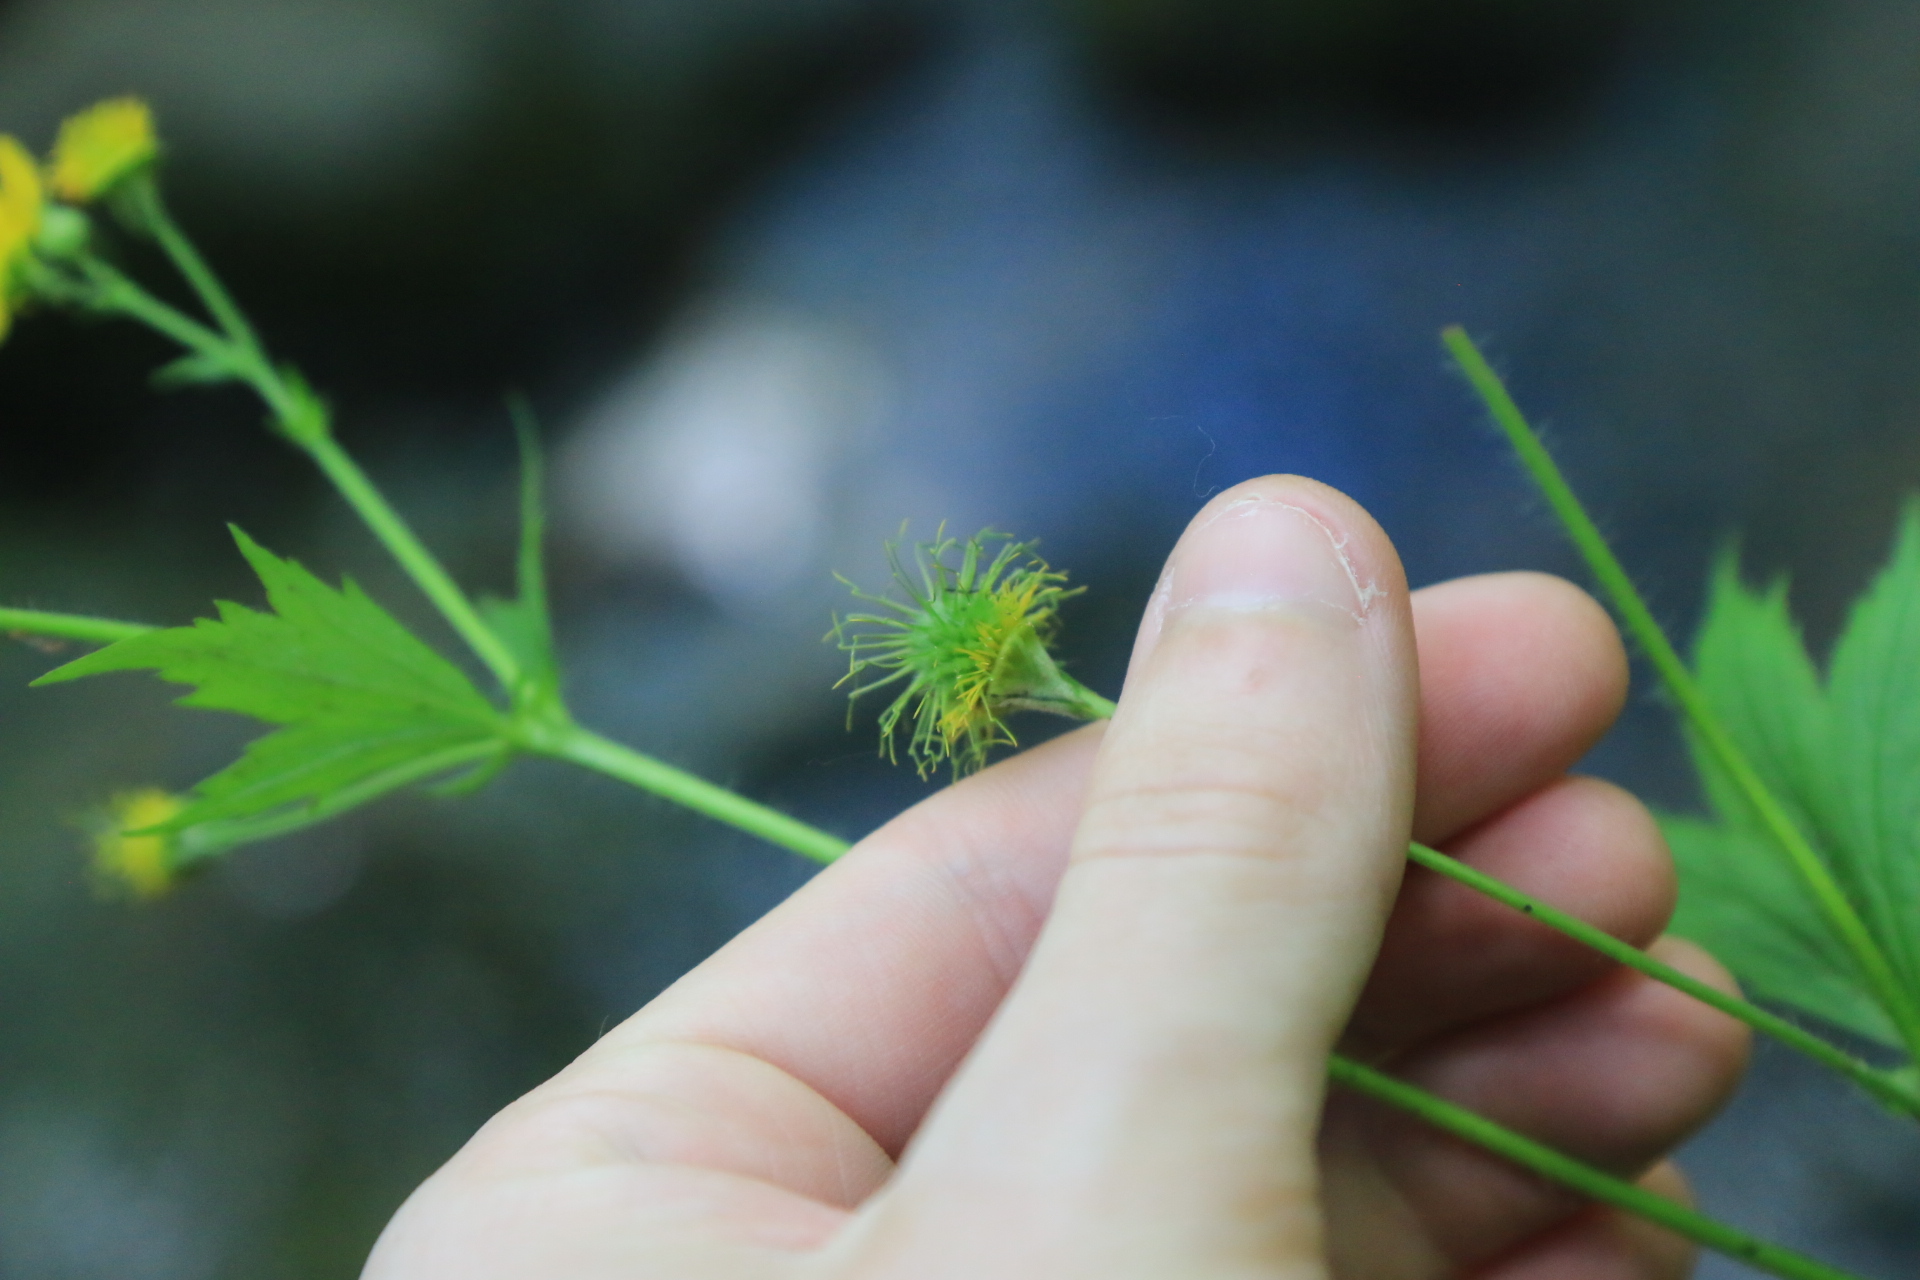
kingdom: Plantae
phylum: Tracheophyta
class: Magnoliopsida
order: Rosales
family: Rosaceae
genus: Geum
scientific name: Geum macrophyllum
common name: Large-leaved avens
